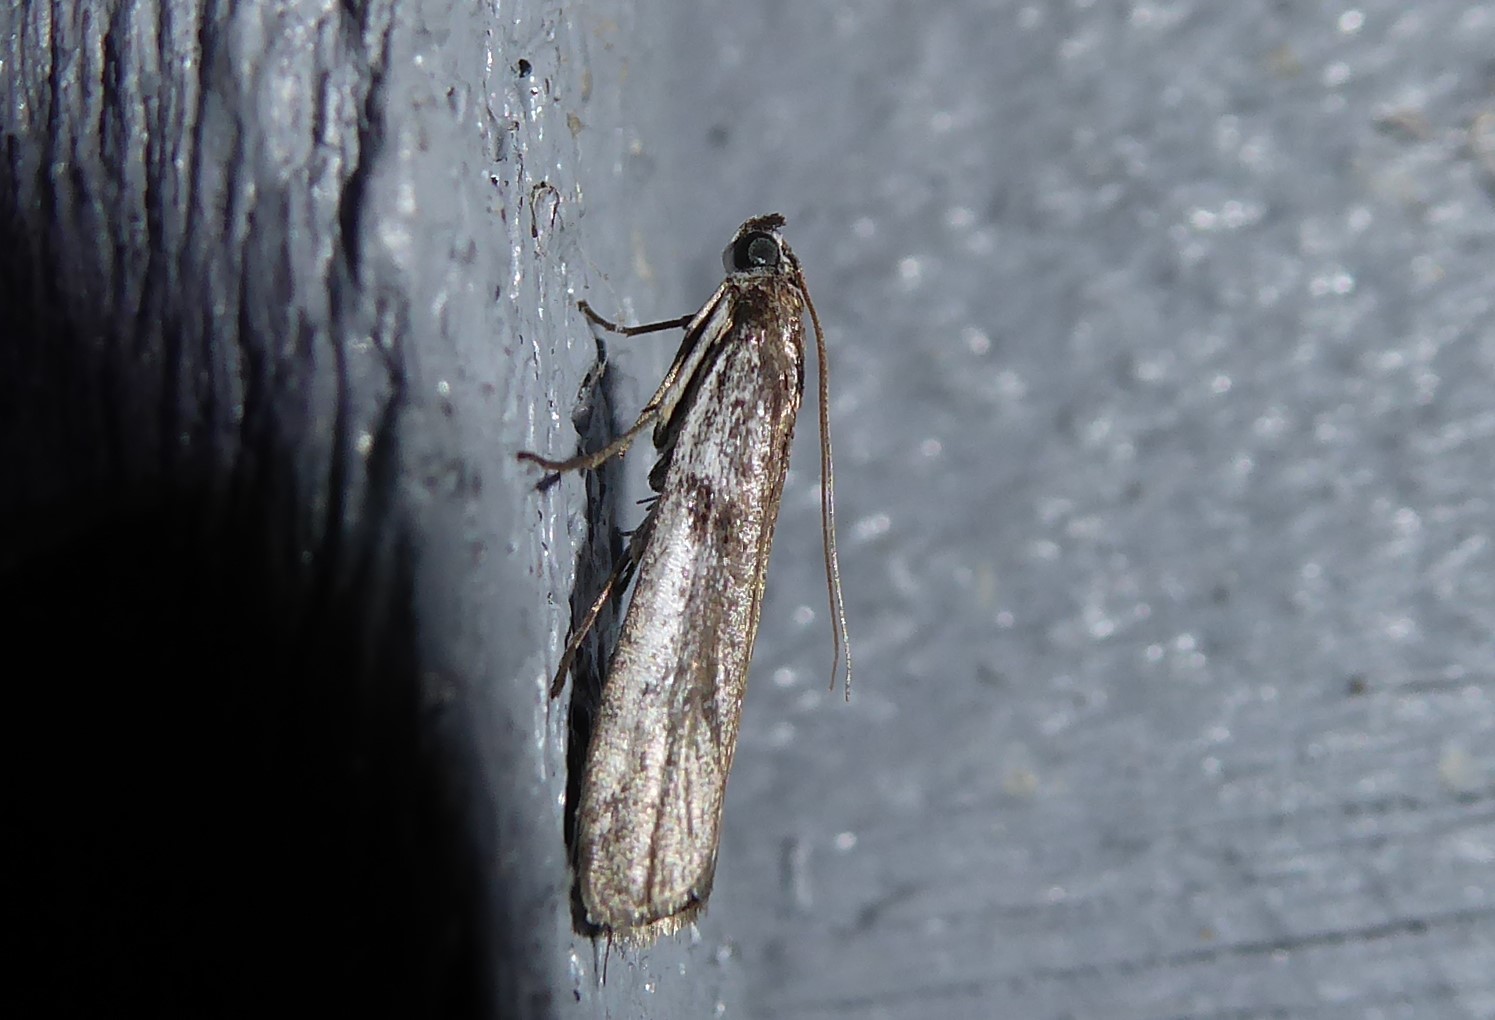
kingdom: Animalia
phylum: Arthropoda
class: Insecta
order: Lepidoptera
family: Pyralidae
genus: Patagoniodes
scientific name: Patagoniodes farinaria
